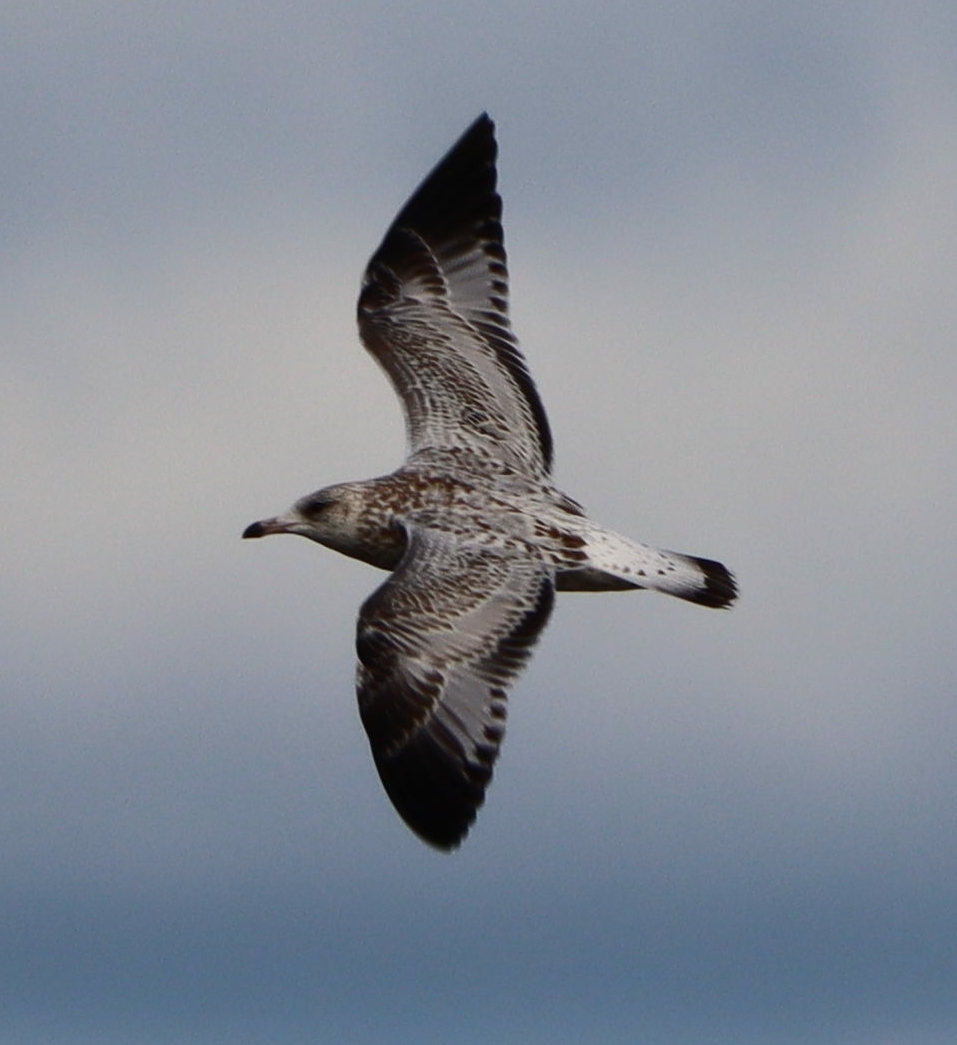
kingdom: Animalia
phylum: Chordata
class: Aves
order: Charadriiformes
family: Laridae
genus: Larus
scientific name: Larus delawarensis
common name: Ring-billed gull
